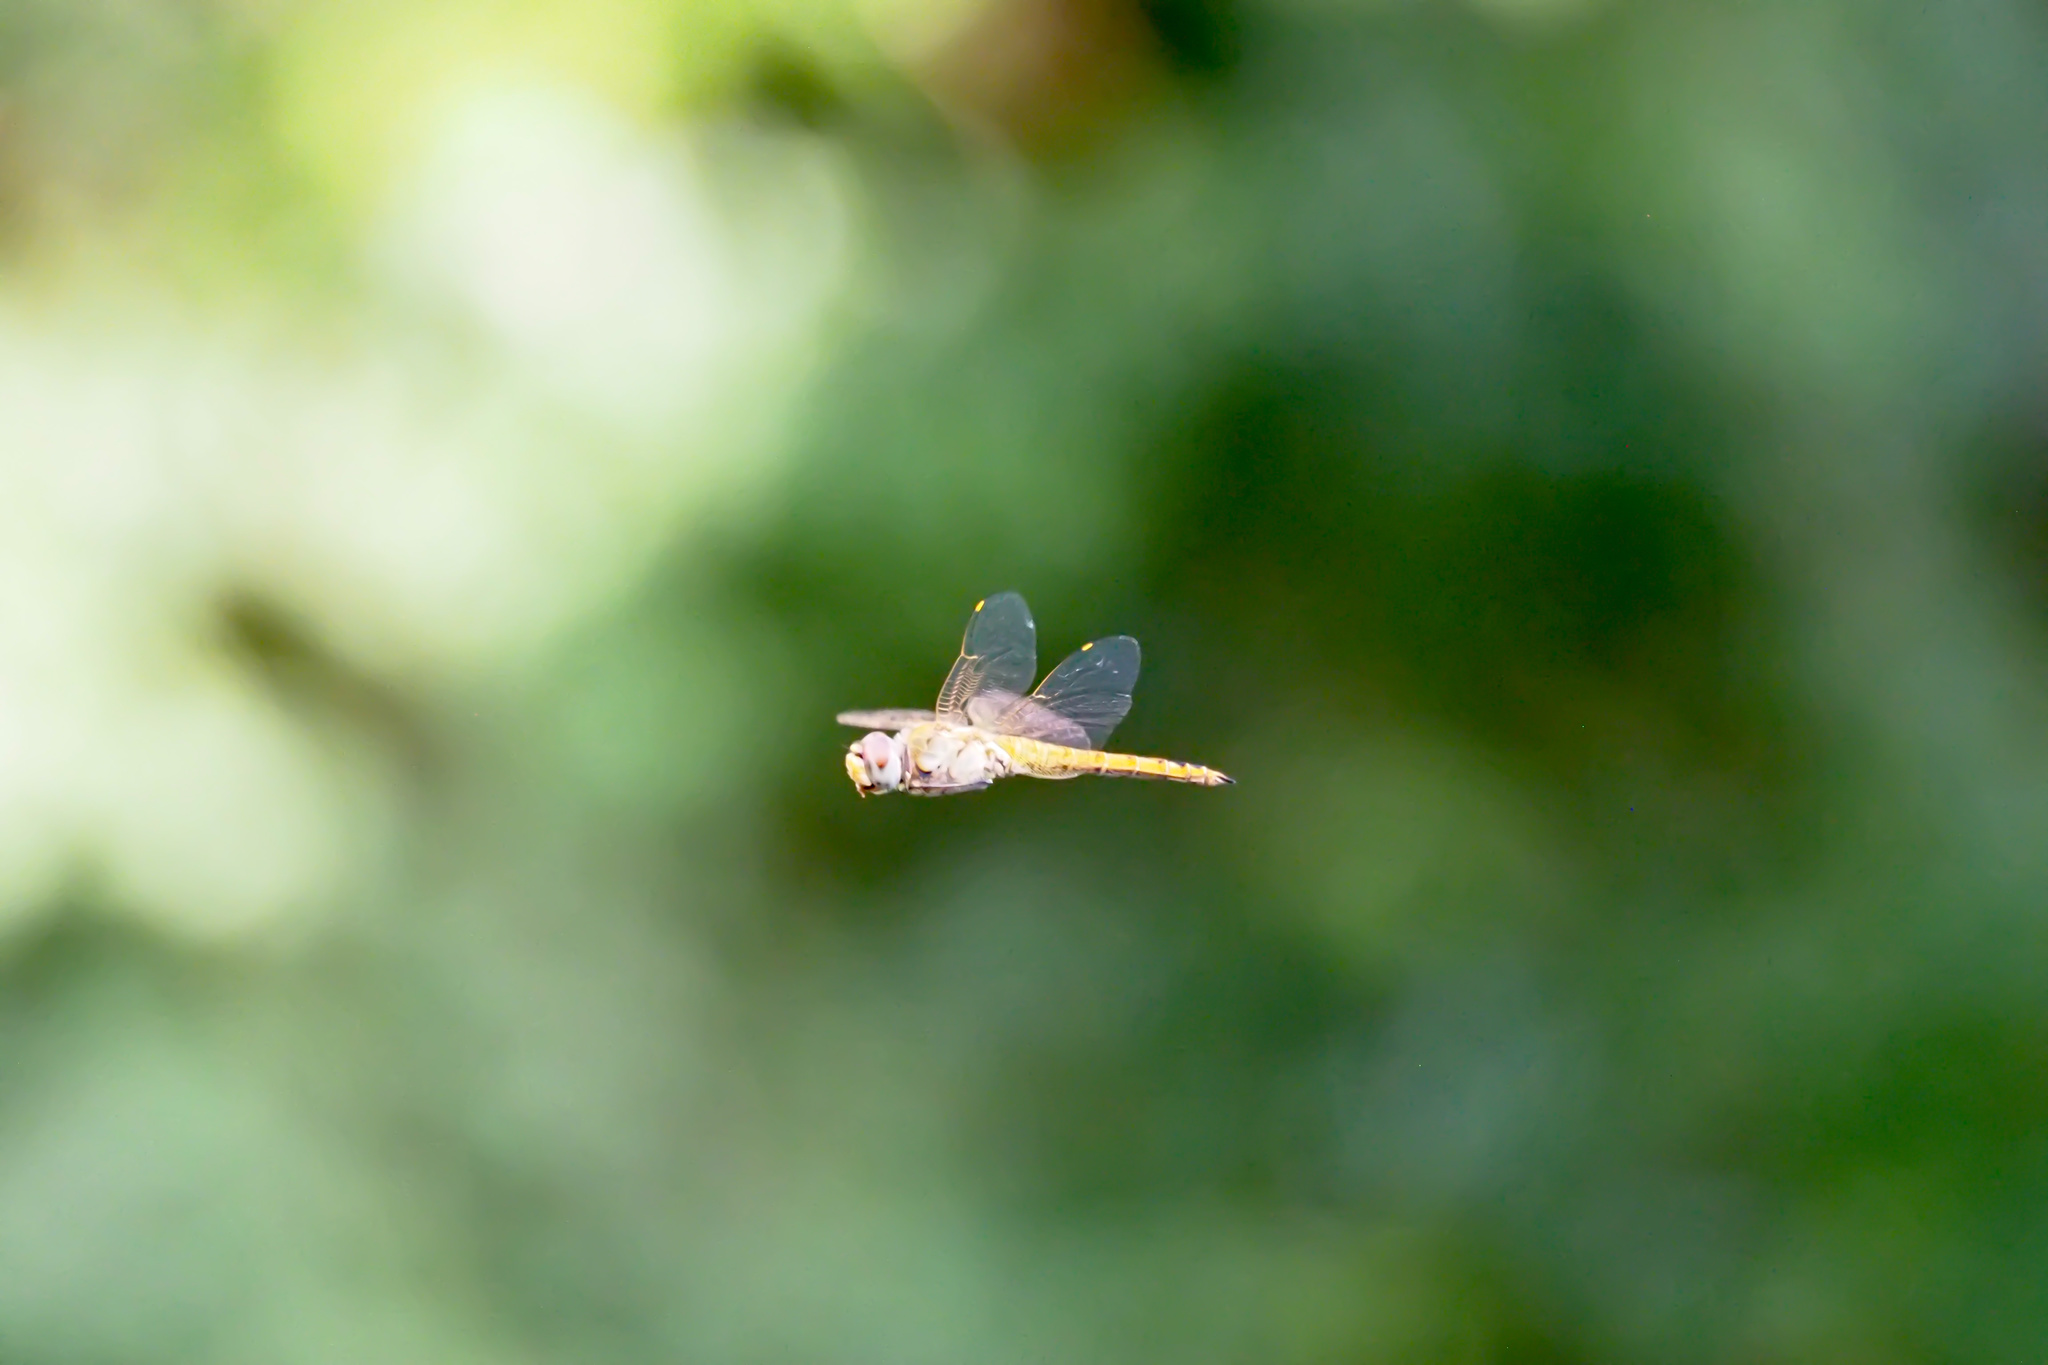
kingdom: Animalia
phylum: Arthropoda
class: Insecta
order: Odonata
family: Libellulidae
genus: Pantala
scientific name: Pantala flavescens
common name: Wandering glider
